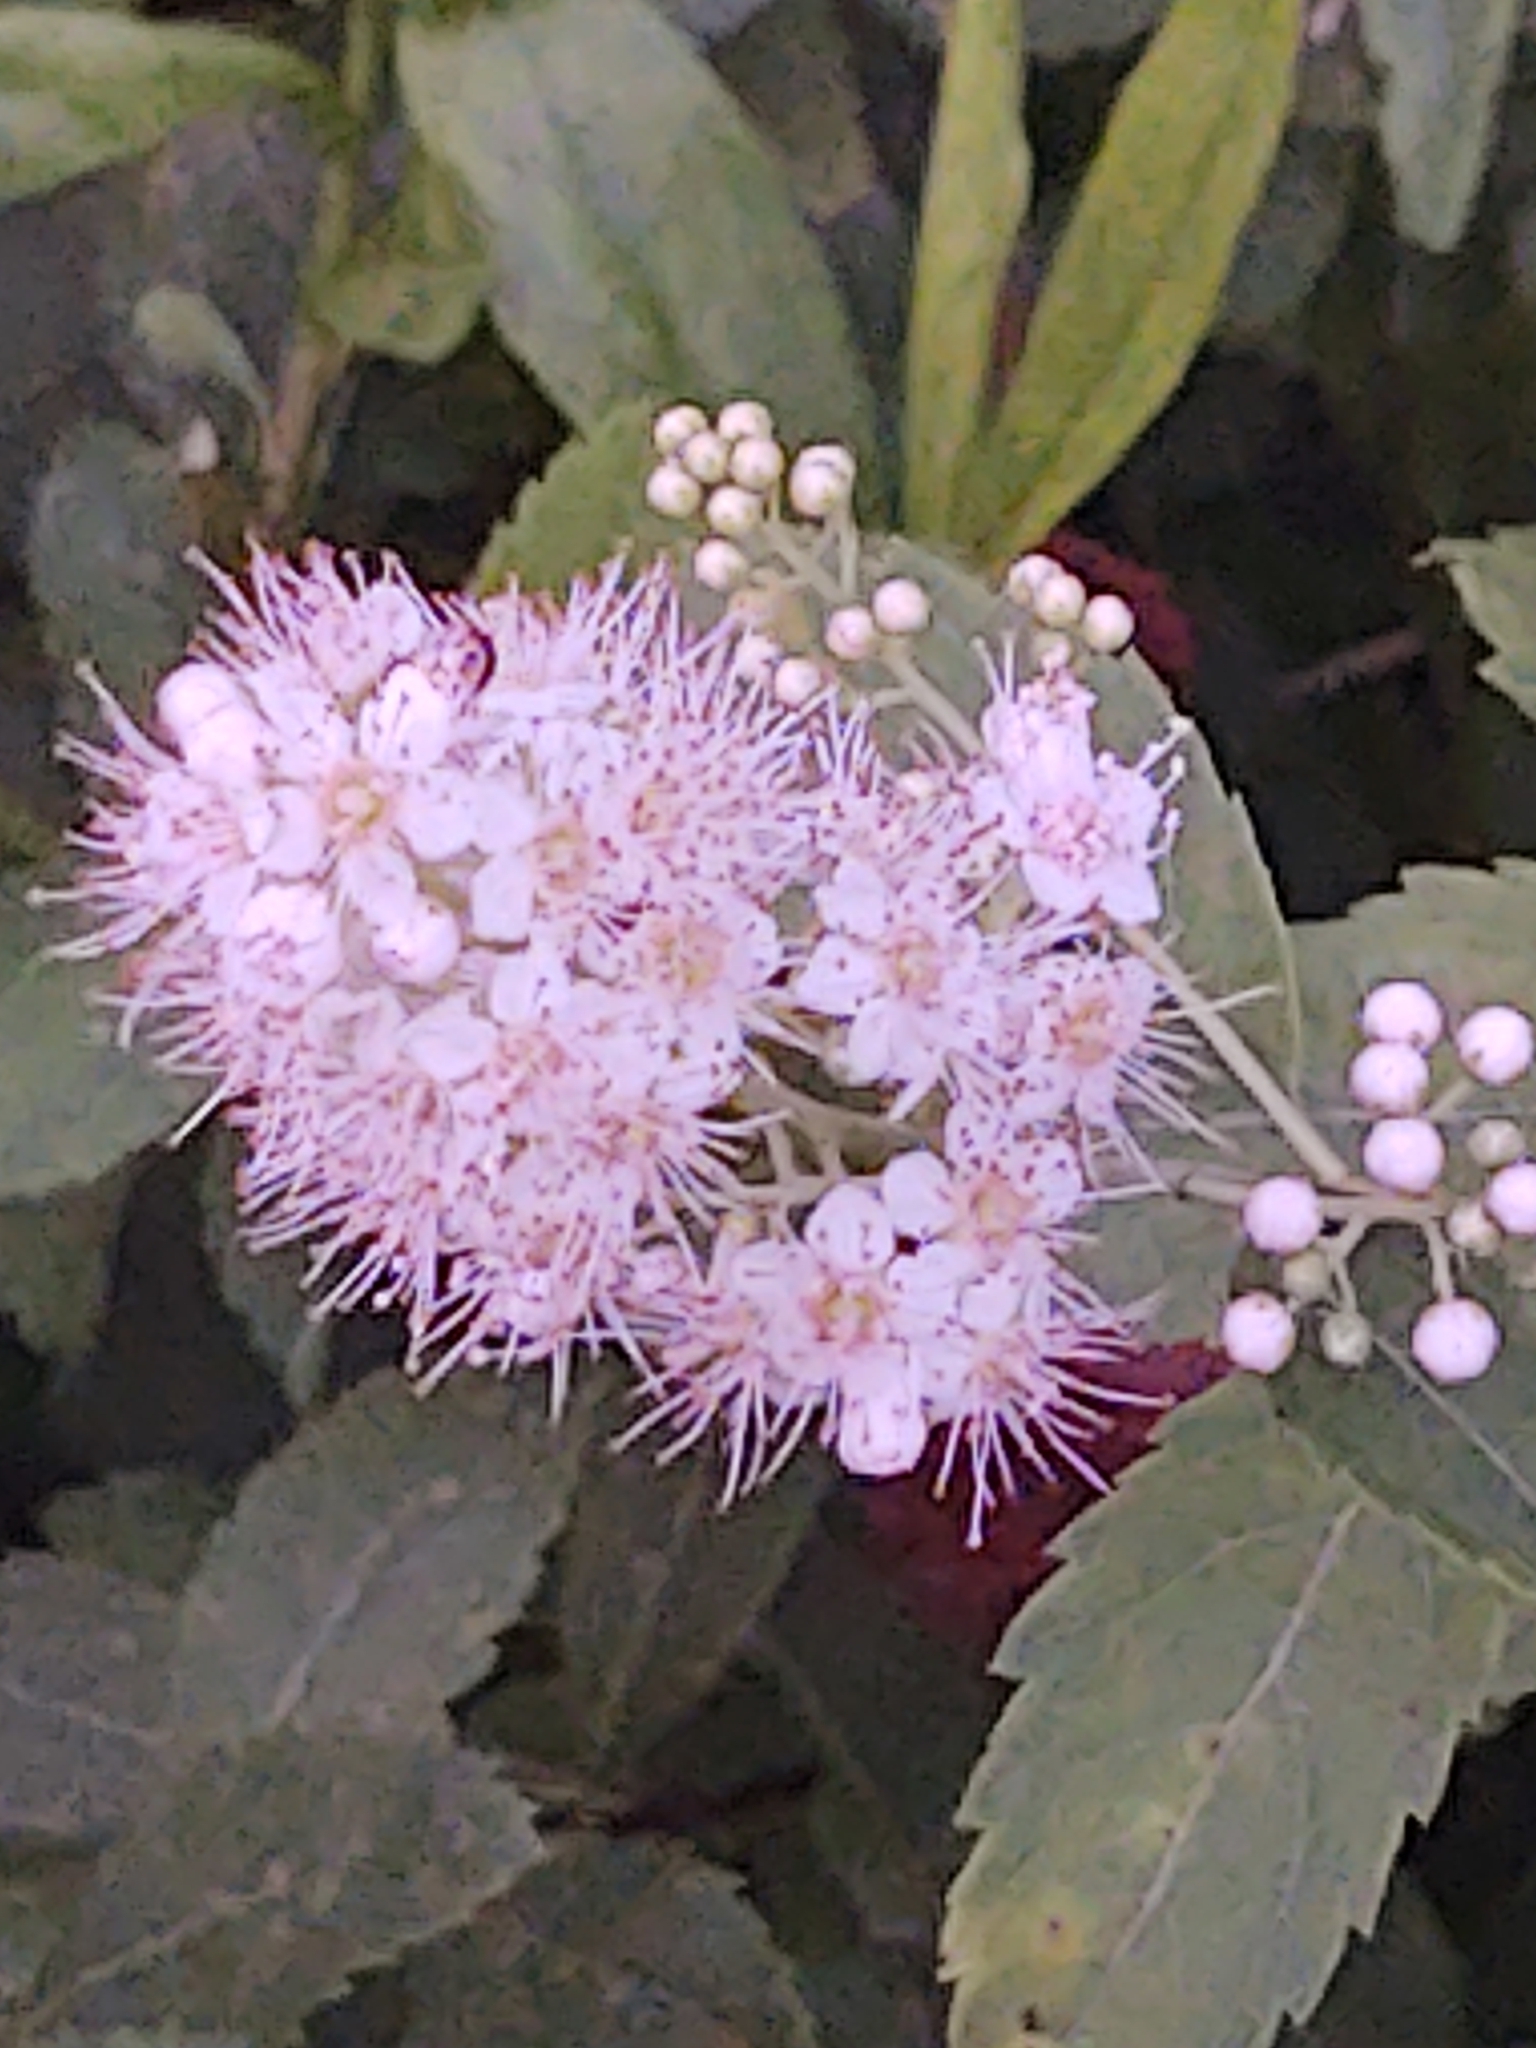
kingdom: Plantae
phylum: Tracheophyta
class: Magnoliopsida
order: Rosales
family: Rosaceae
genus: Spiraea
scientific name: Spiraea alba
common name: Pale bridewort
